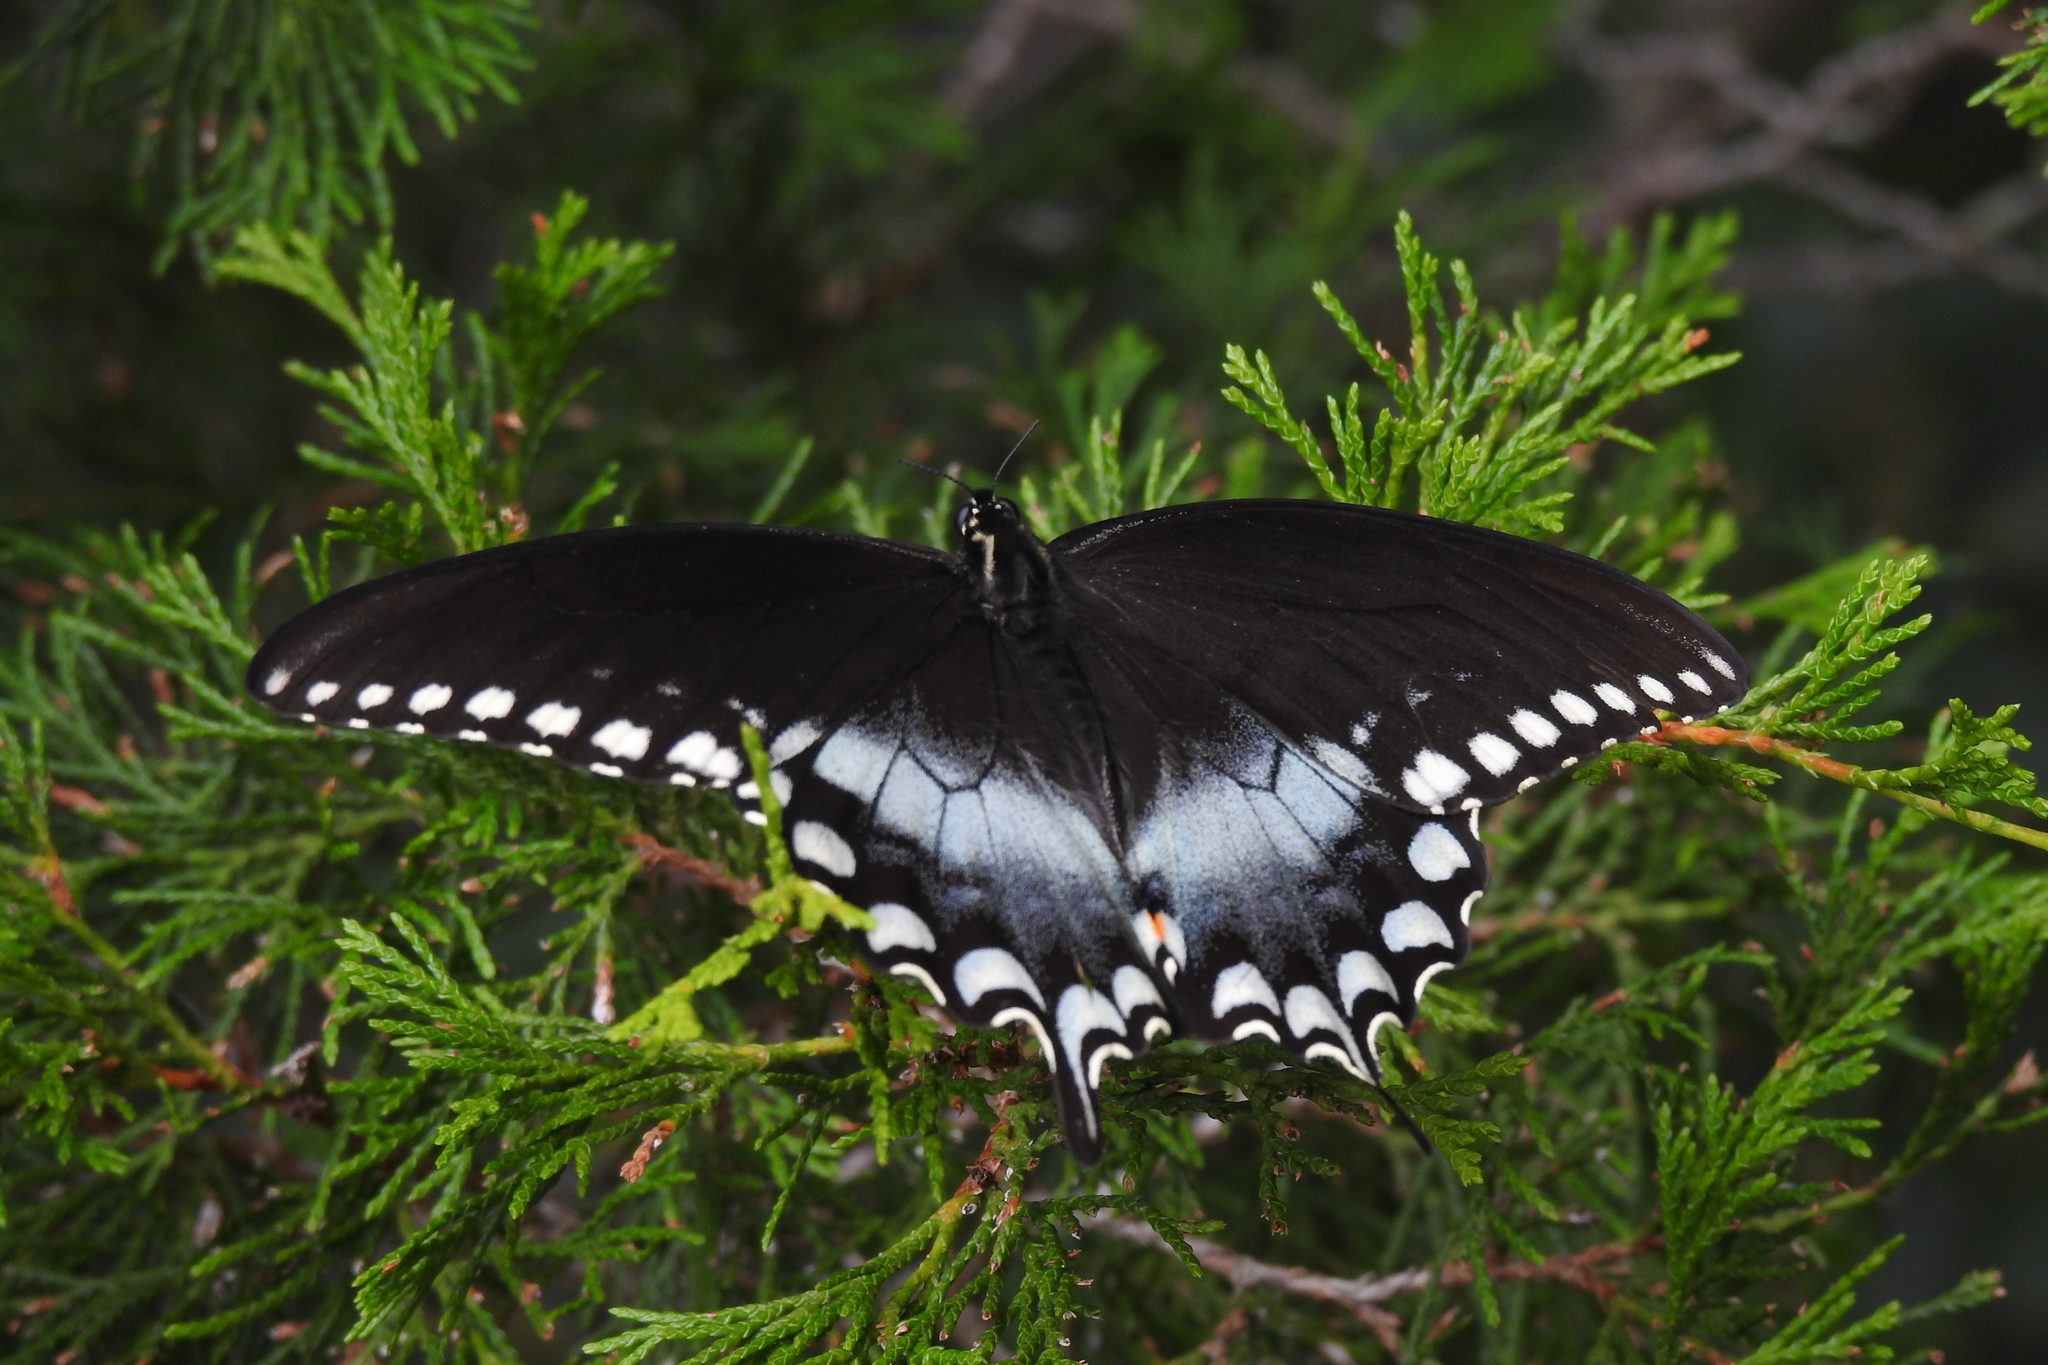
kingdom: Animalia
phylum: Arthropoda
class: Insecta
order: Lepidoptera
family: Papilionidae
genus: Papilio
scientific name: Papilio troilus
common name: Spicebush swallowtail
